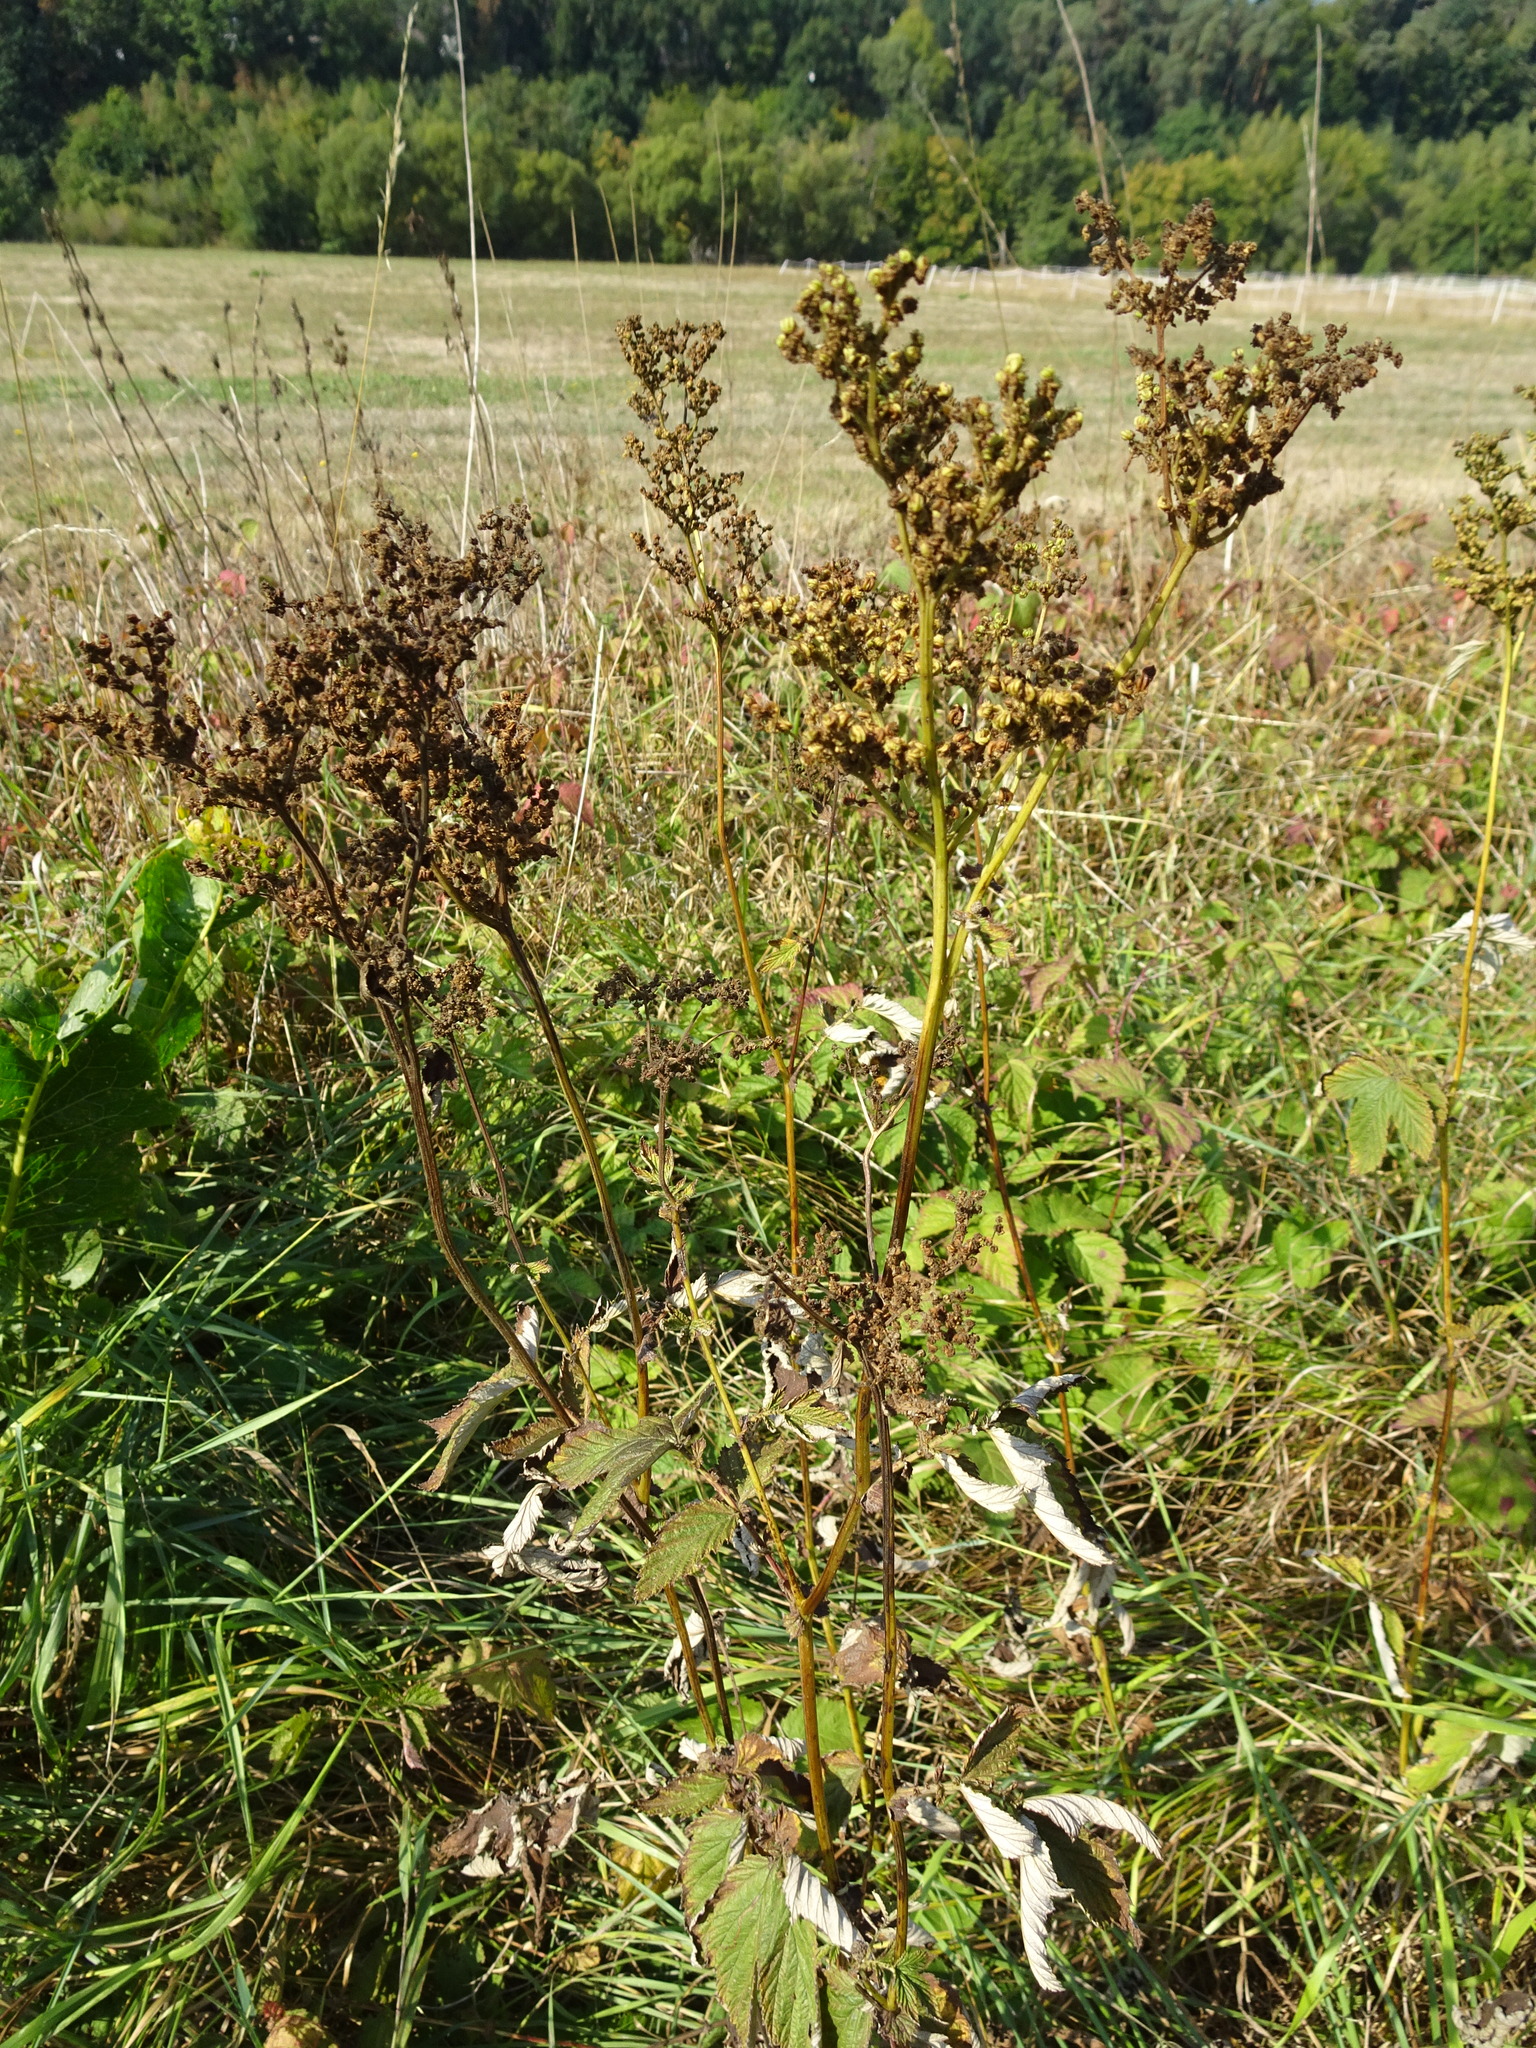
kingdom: Plantae
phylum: Tracheophyta
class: Magnoliopsida
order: Rosales
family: Rosaceae
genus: Filipendula
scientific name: Filipendula ulmaria
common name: Meadowsweet
